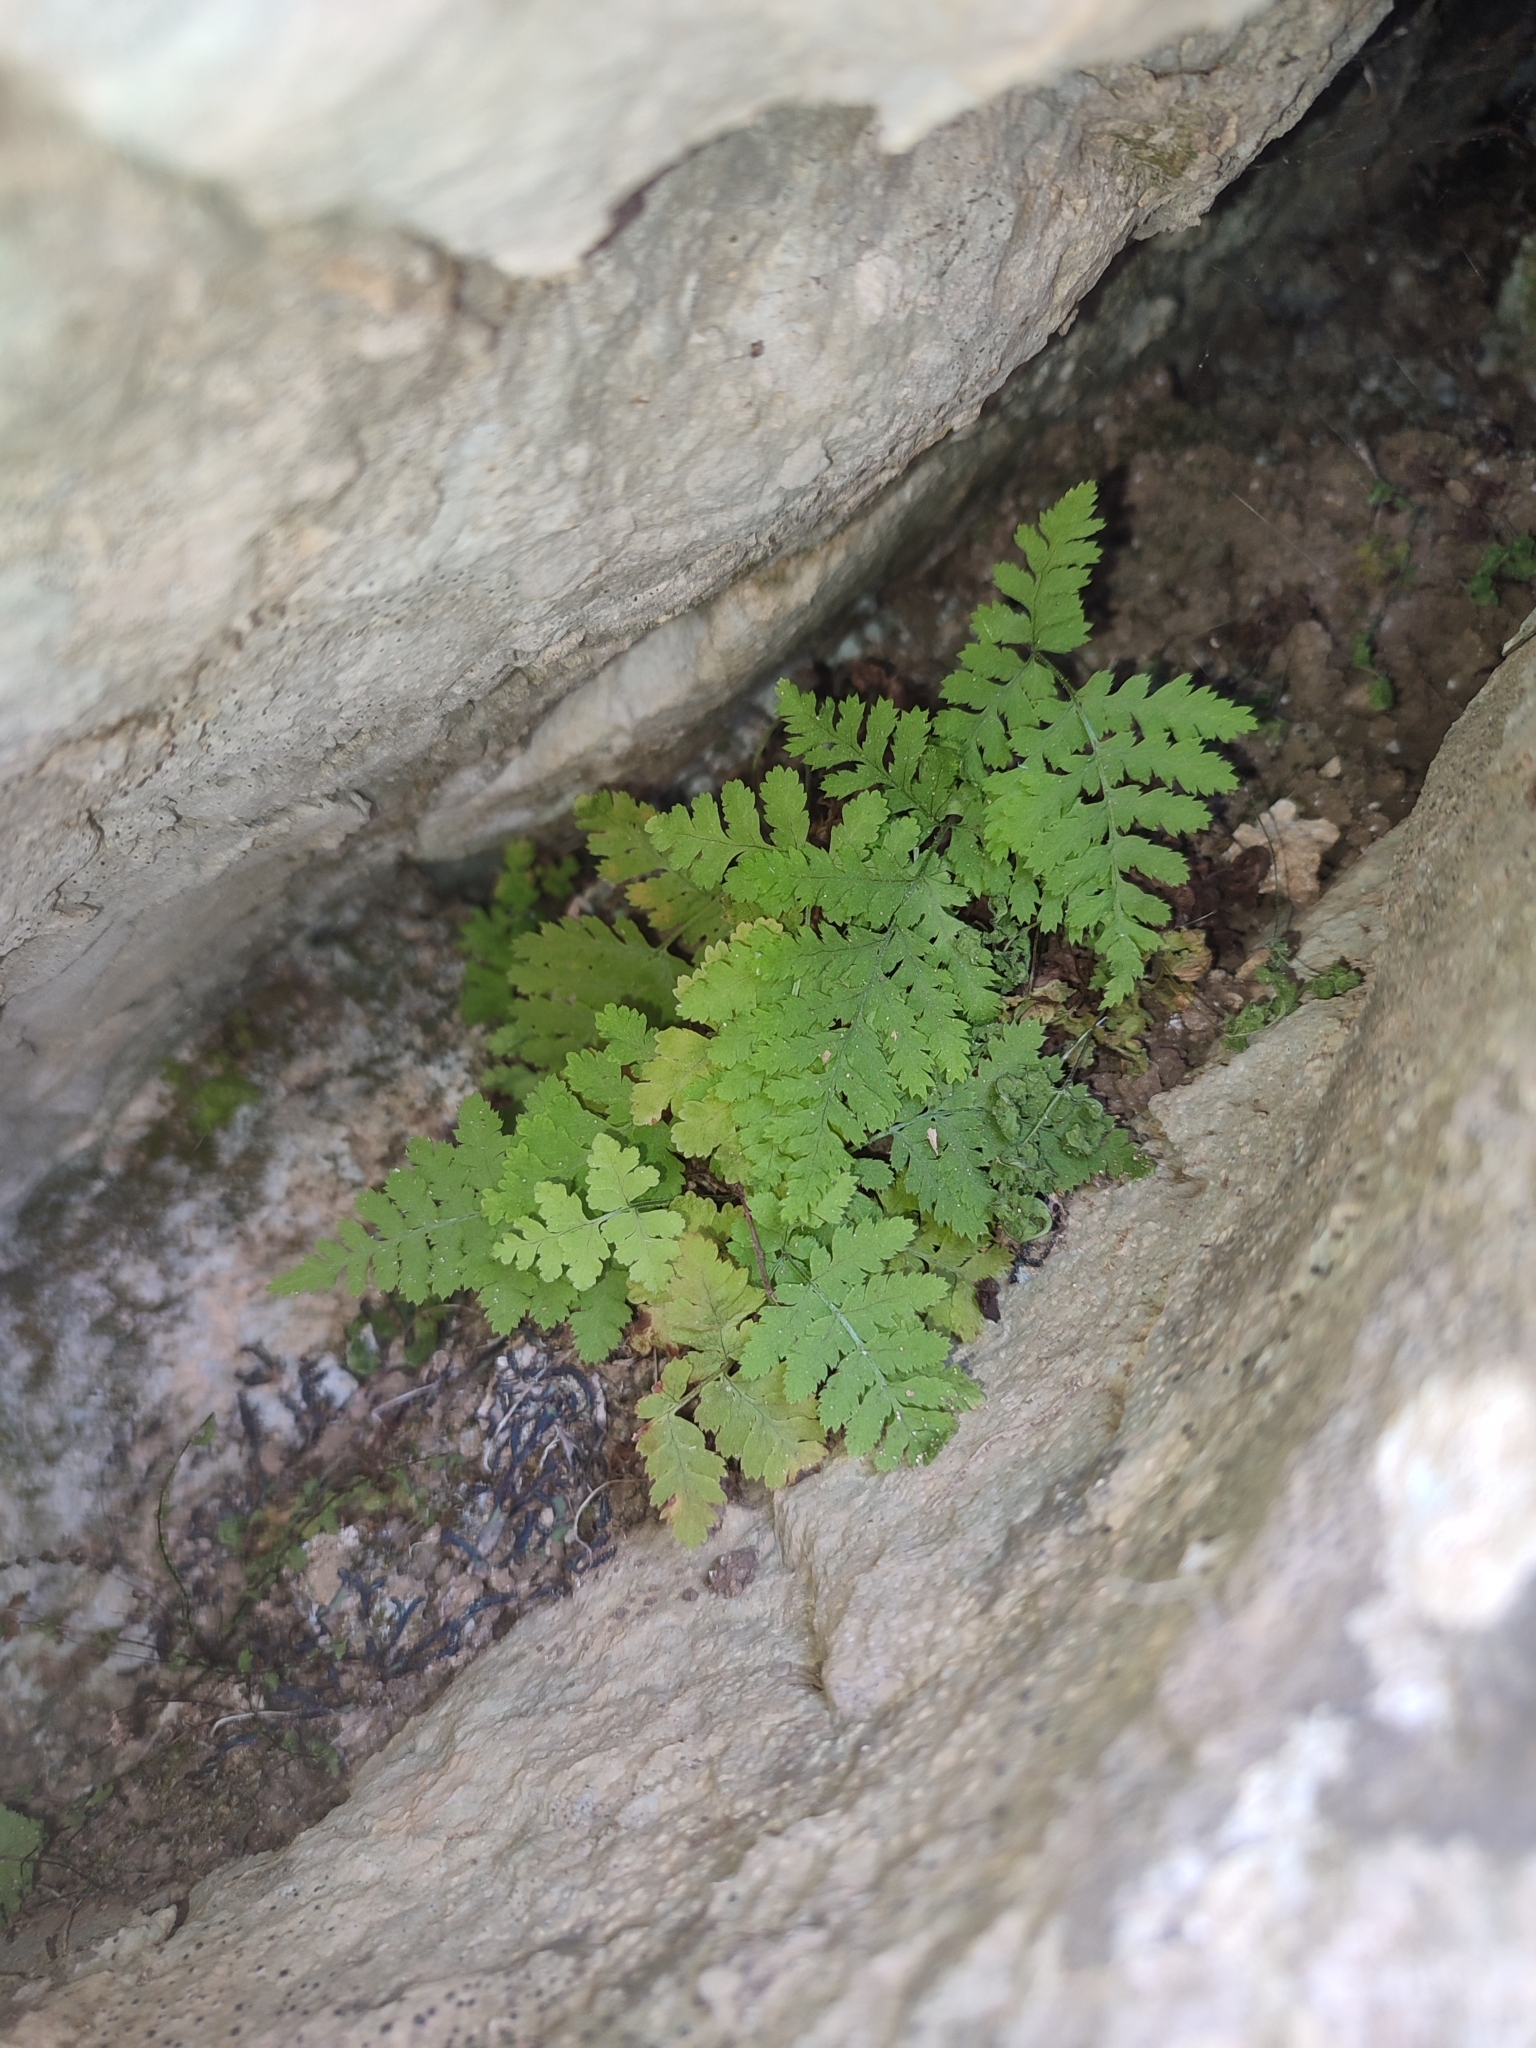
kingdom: Plantae
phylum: Tracheophyta
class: Polypodiopsida
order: Polypodiales
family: Dryopteridaceae
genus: Dryopteris
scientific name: Dryopteris pallida
